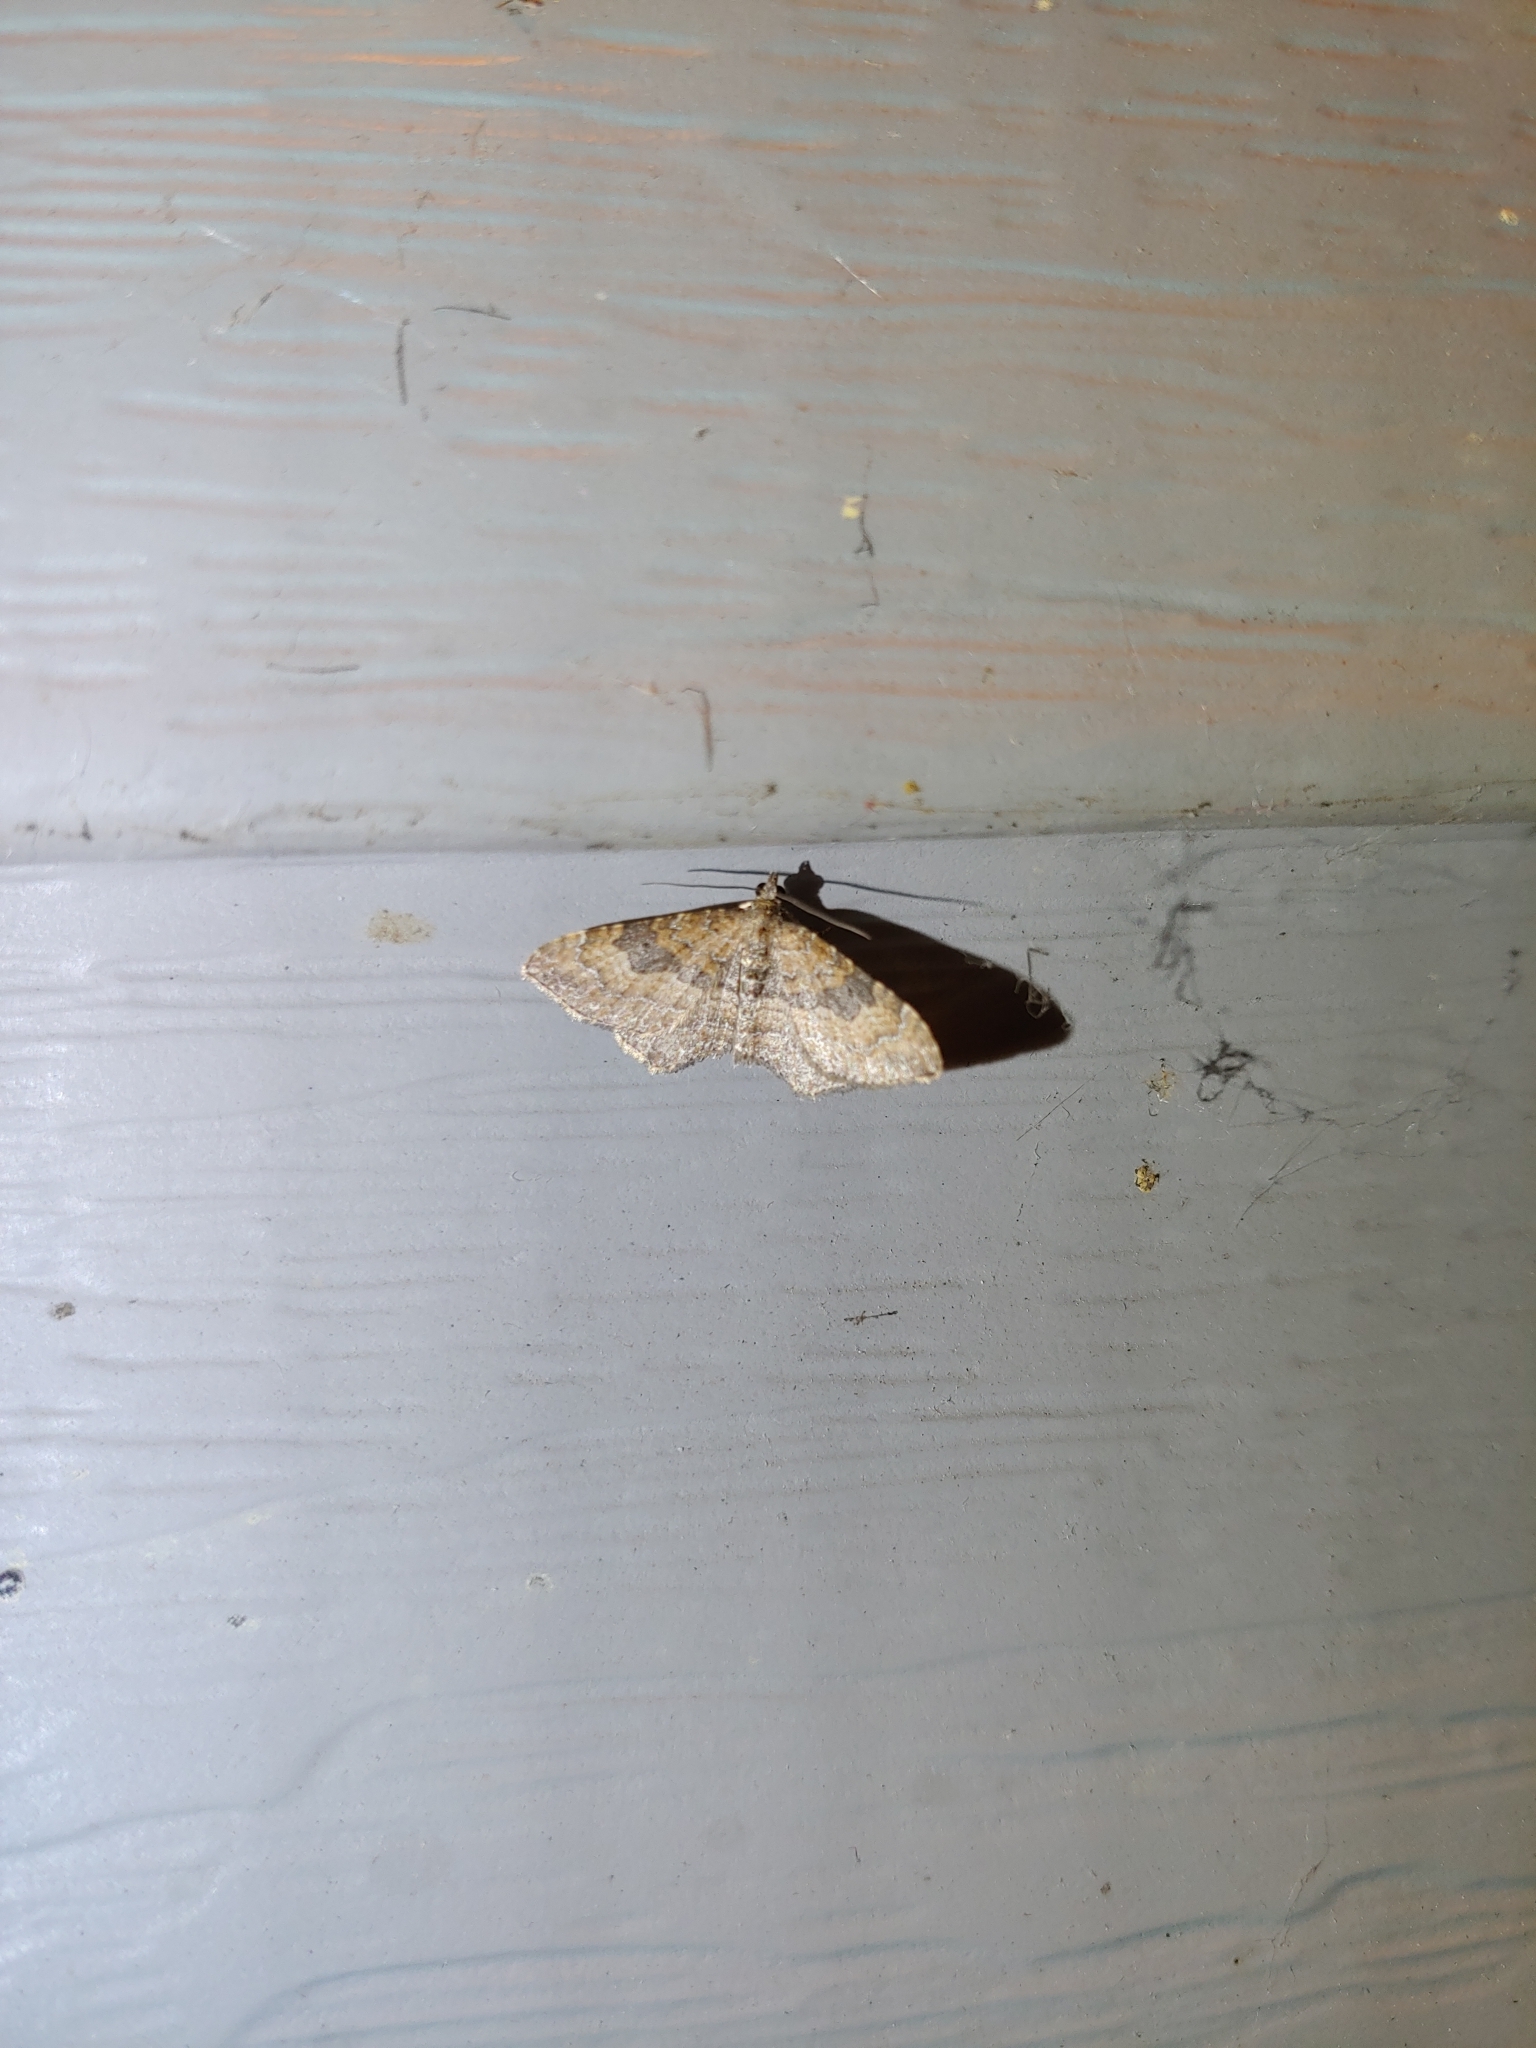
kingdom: Animalia
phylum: Arthropoda
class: Insecta
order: Lepidoptera
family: Geometridae
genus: Orthonama
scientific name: Orthonama obstipata
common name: The gem
